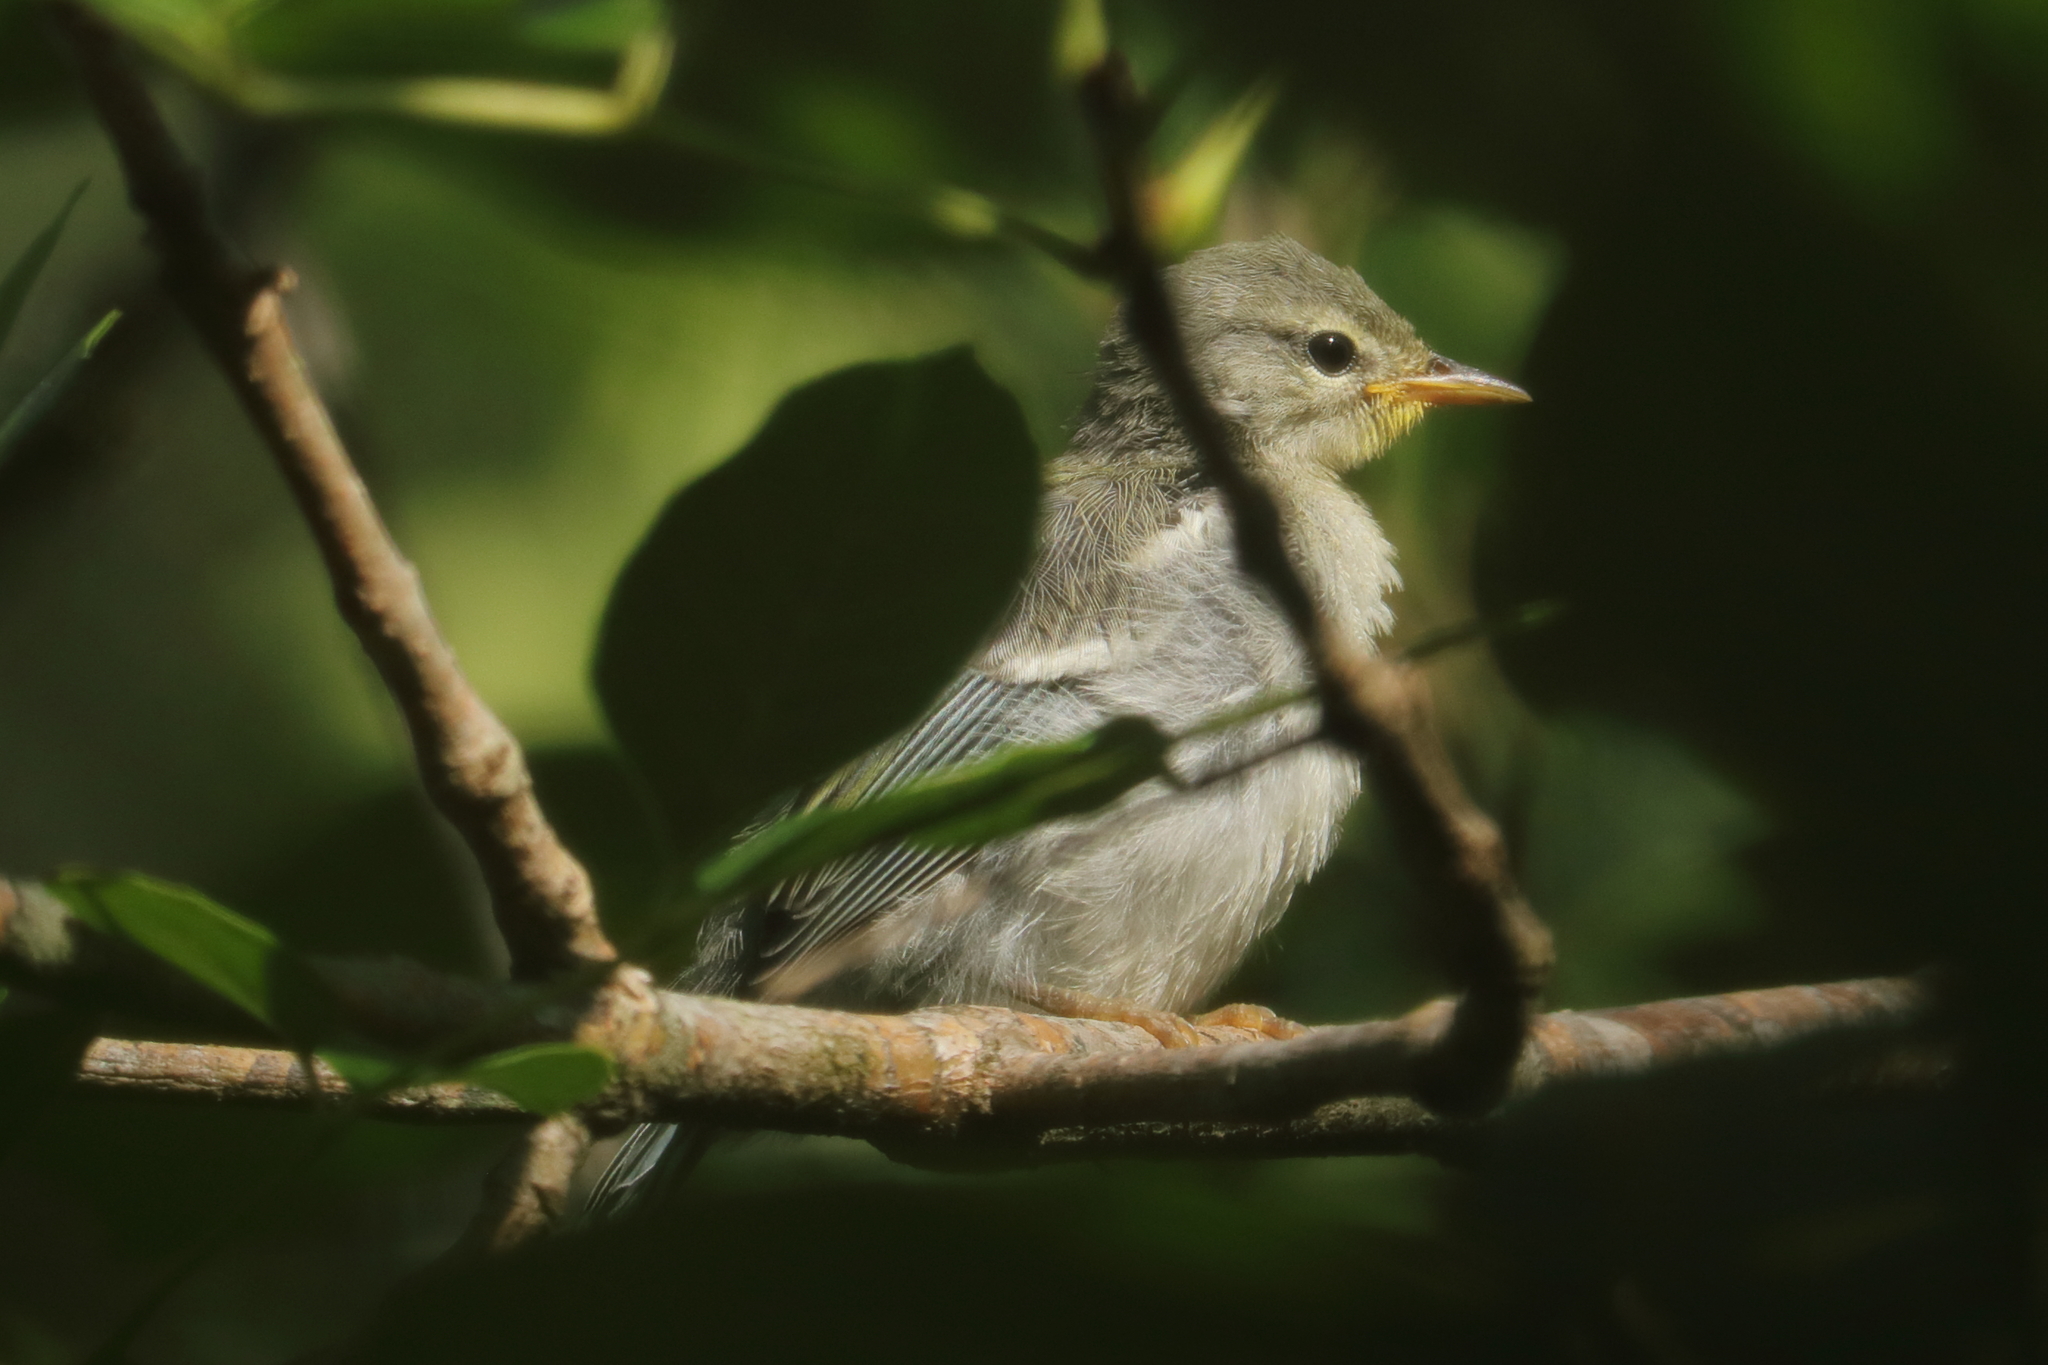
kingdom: Animalia
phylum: Chordata
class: Aves
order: Passeriformes
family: Parulidae
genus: Setophaga
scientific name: Setophaga americana
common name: Northern parula
